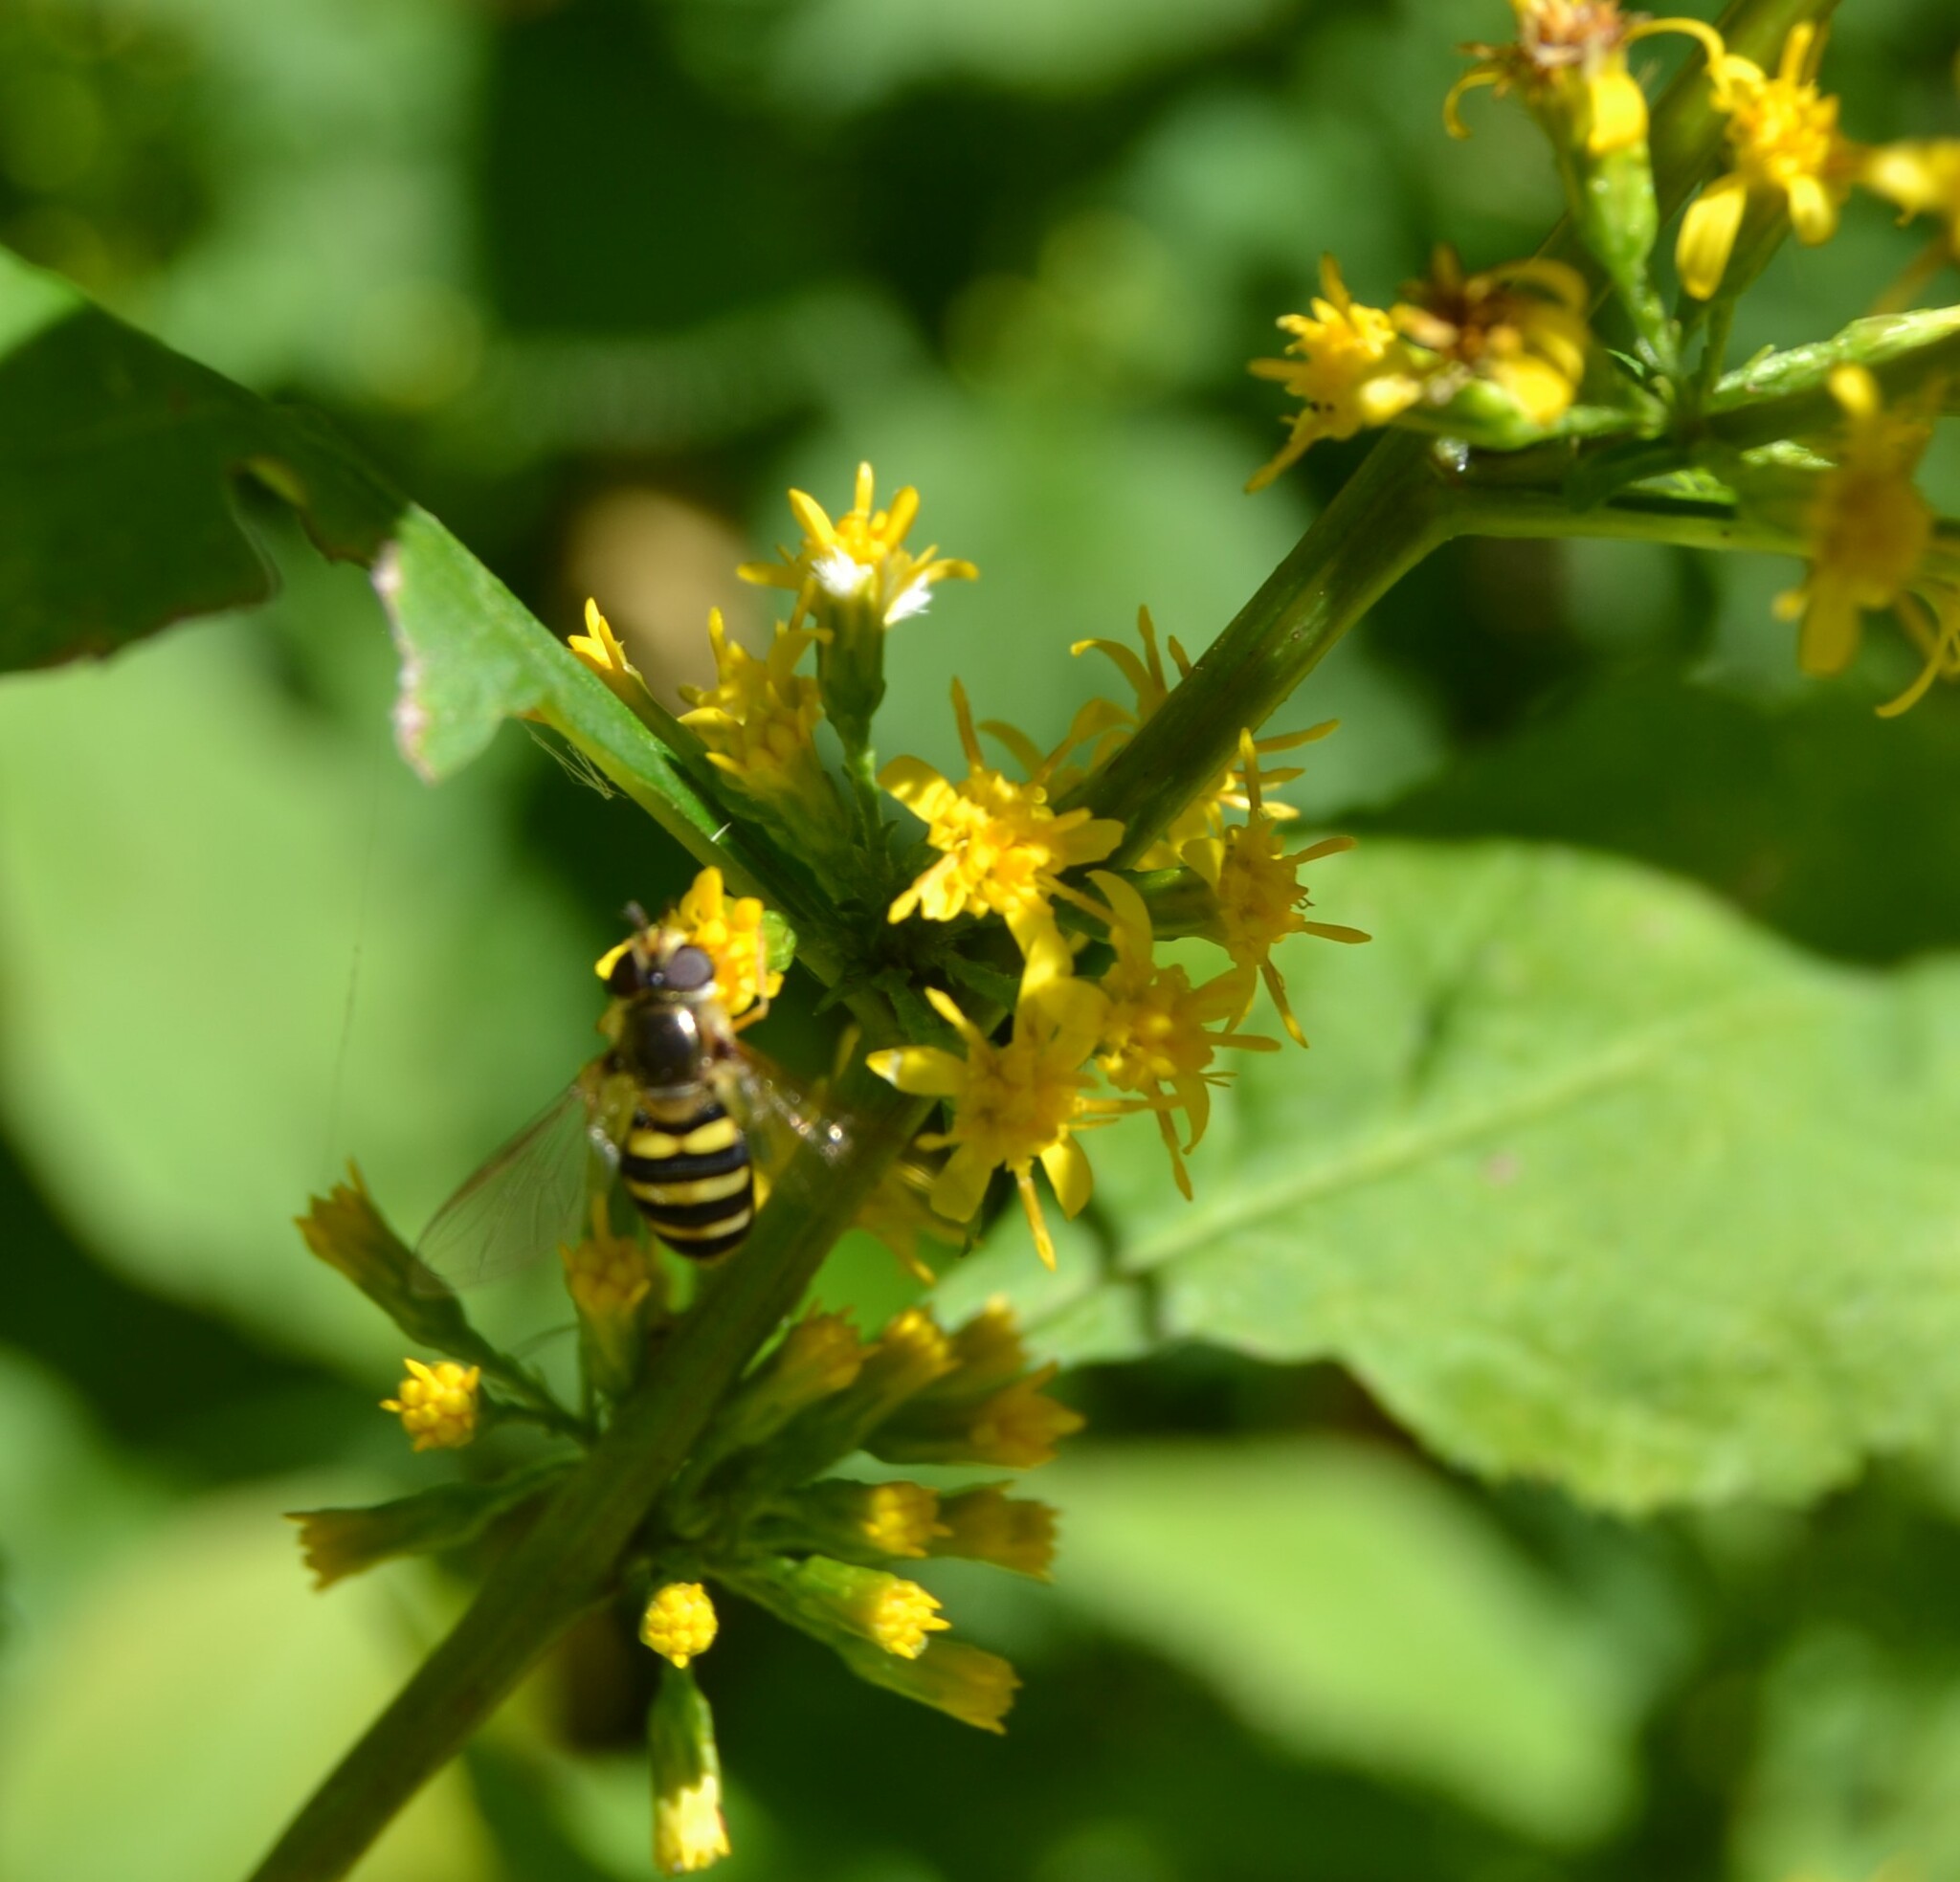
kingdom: Animalia
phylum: Arthropoda
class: Insecta
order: Diptera
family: Syrphidae
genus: Eupeodes
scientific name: Eupeodes
